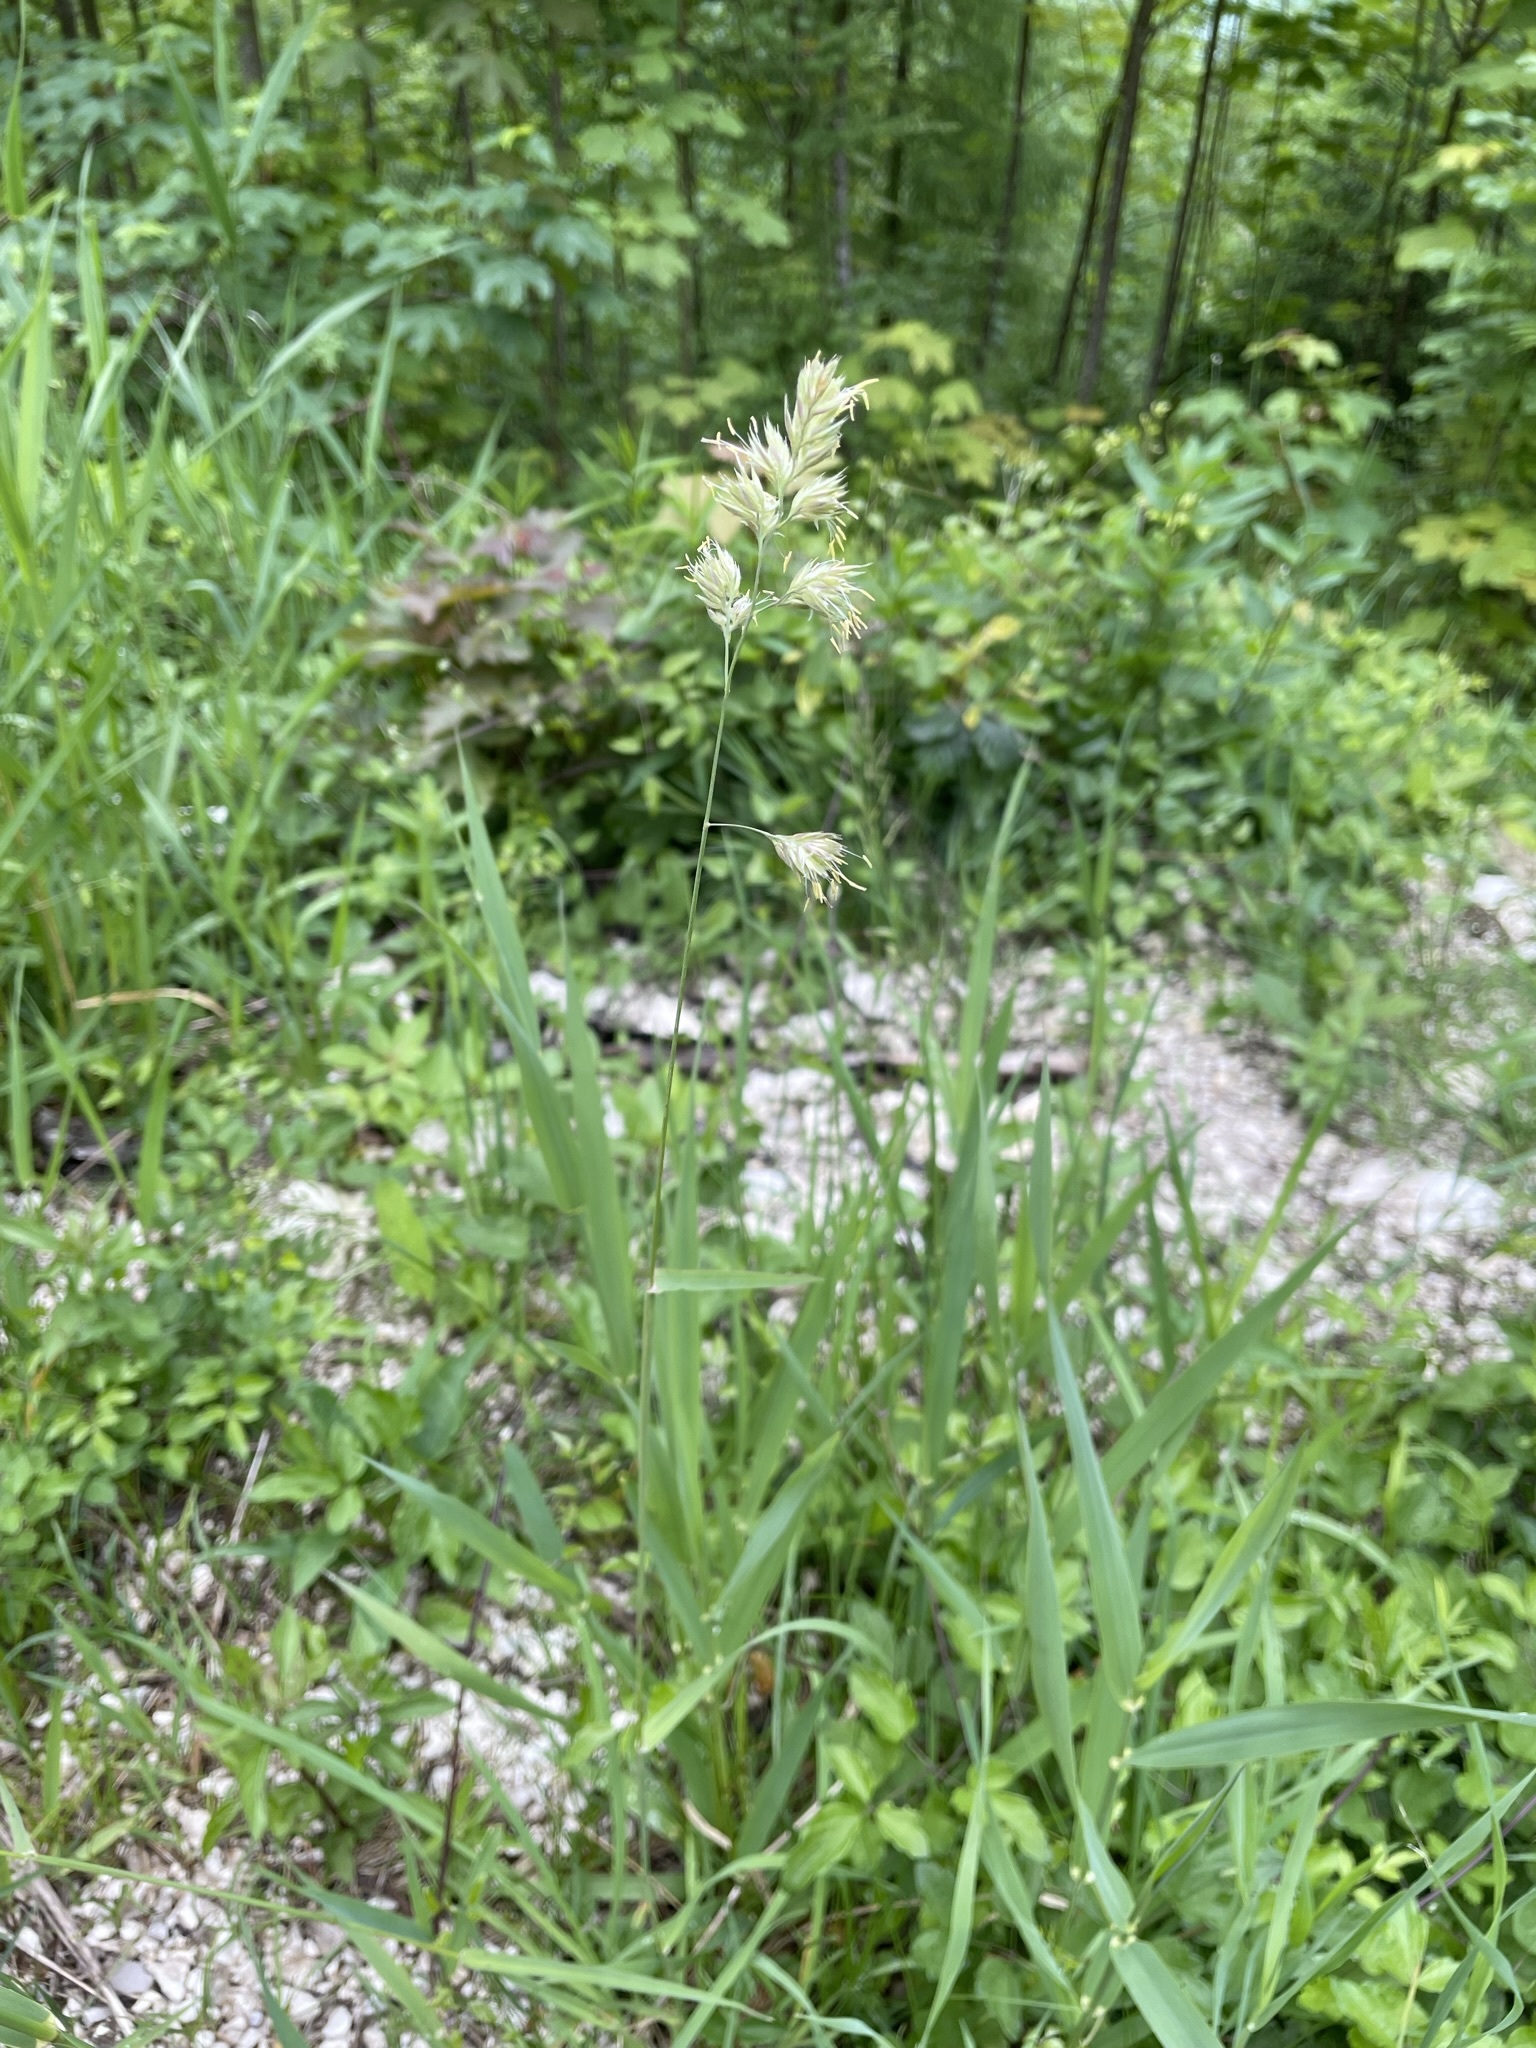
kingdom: Plantae
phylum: Tracheophyta
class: Liliopsida
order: Poales
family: Poaceae
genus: Dactylis
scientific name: Dactylis glomerata
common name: Orchardgrass
